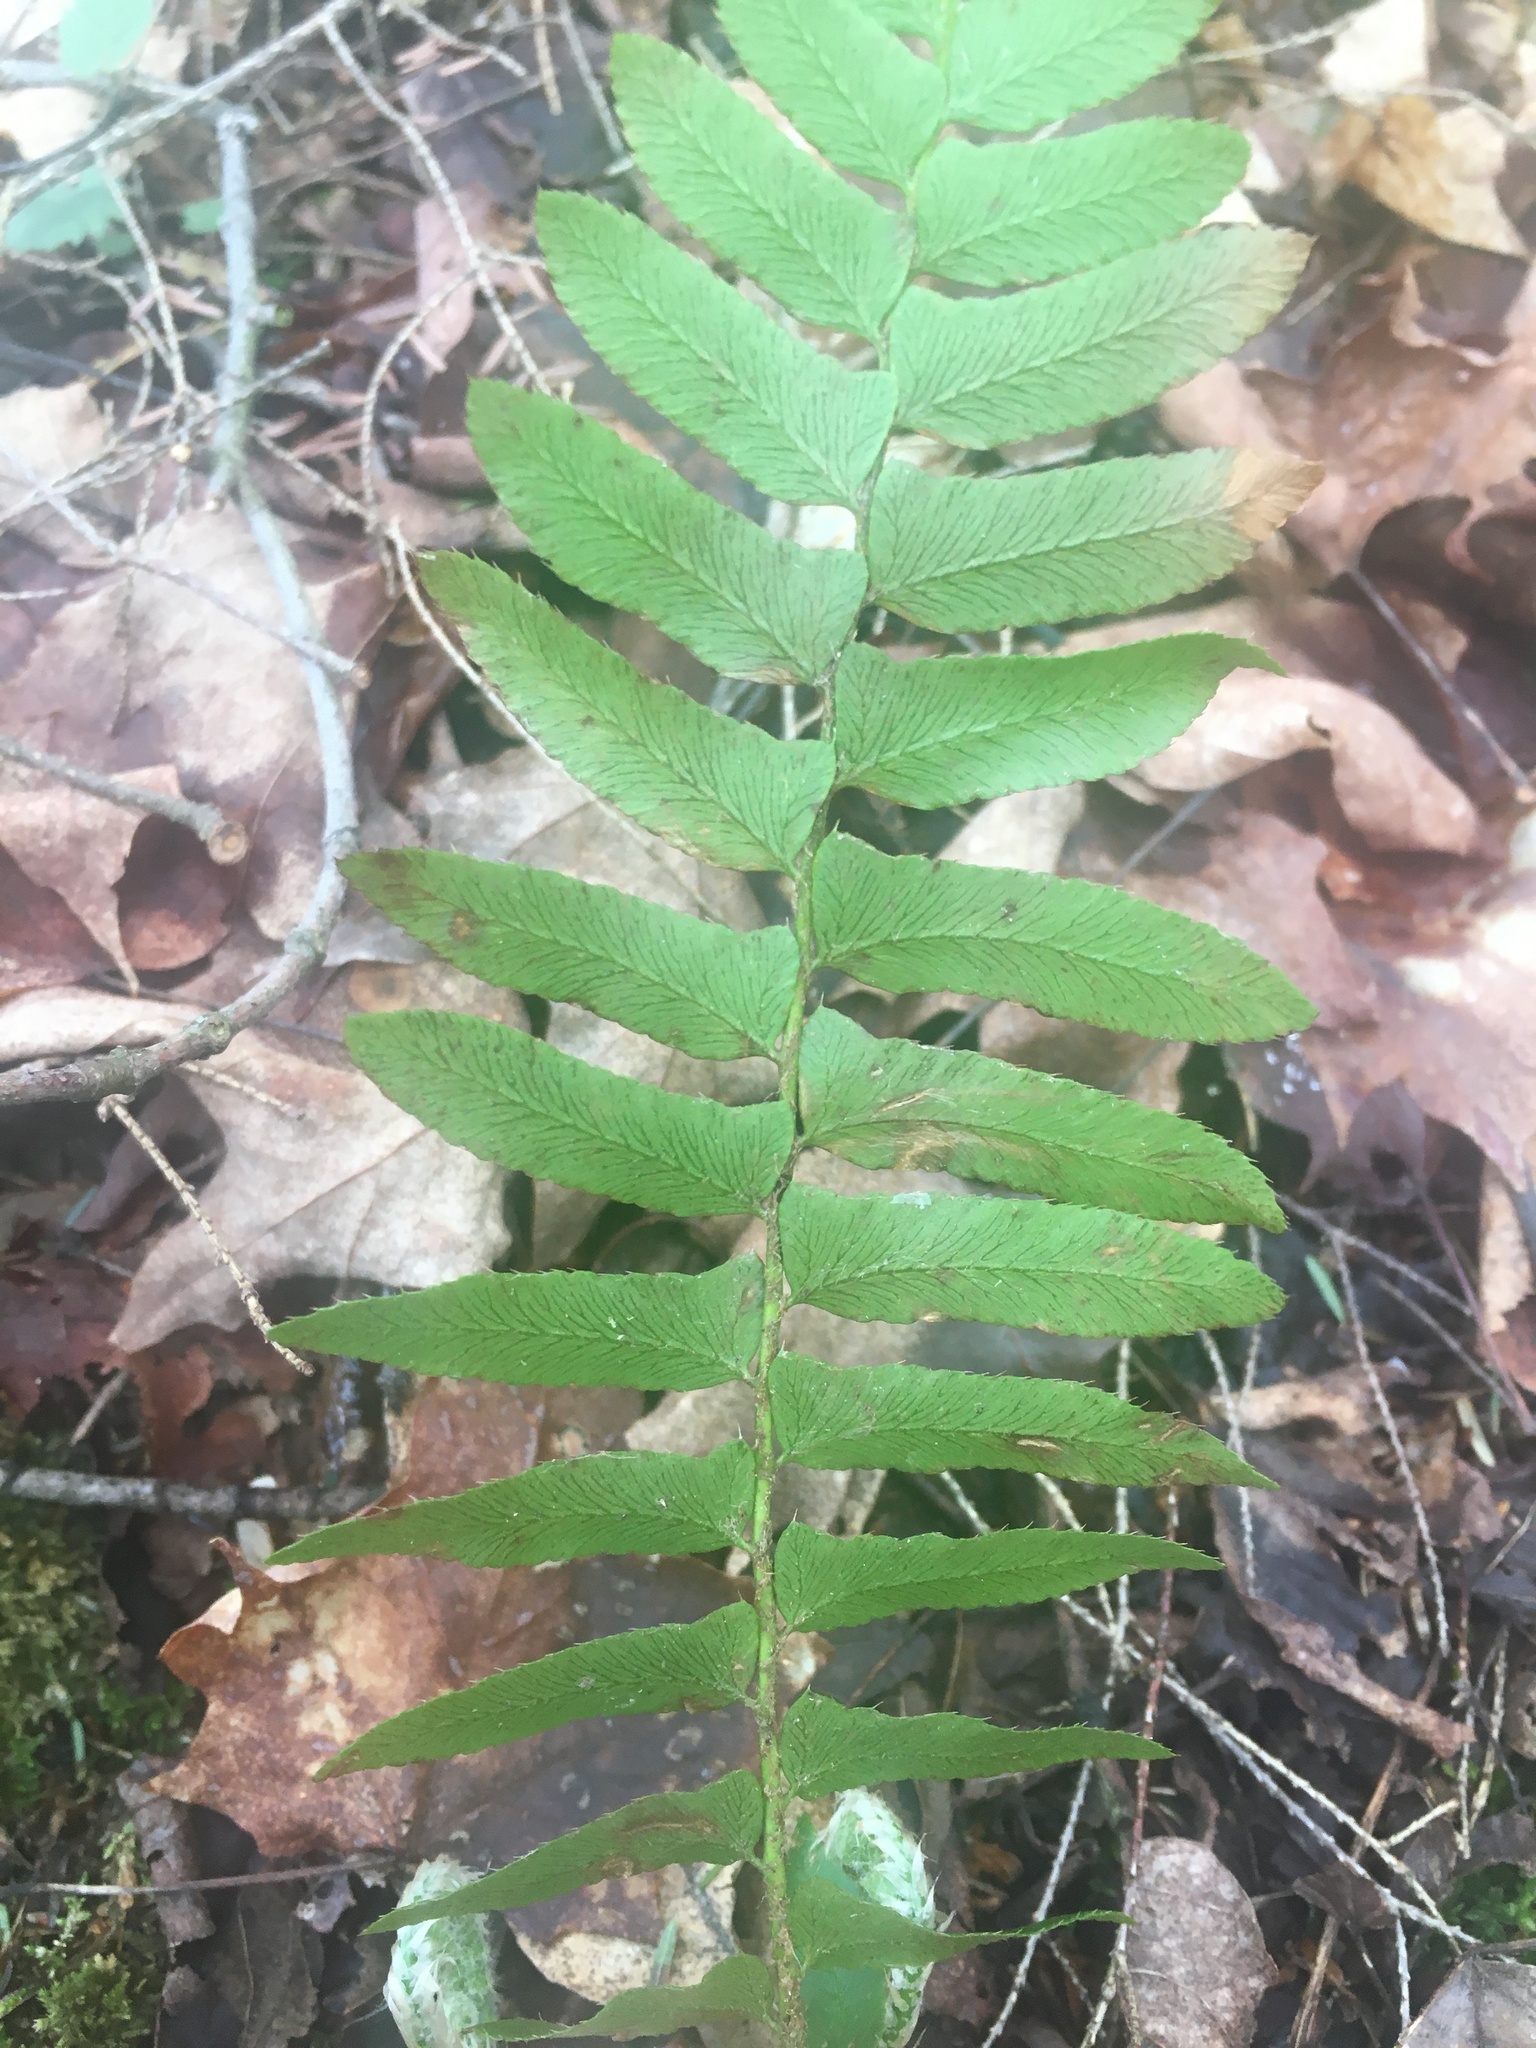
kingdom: Plantae
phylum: Tracheophyta
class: Polypodiopsida
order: Polypodiales
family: Dryopteridaceae
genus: Polystichum
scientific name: Polystichum acrostichoides
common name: Christmas fern
